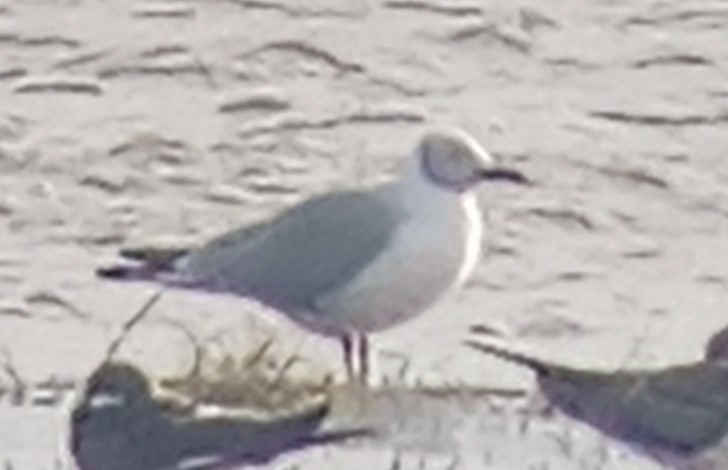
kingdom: Animalia
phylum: Chordata
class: Aves
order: Charadriiformes
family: Laridae
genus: Chroicocephalus
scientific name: Chroicocephalus cirrocephalus
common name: Grey-headed gull
